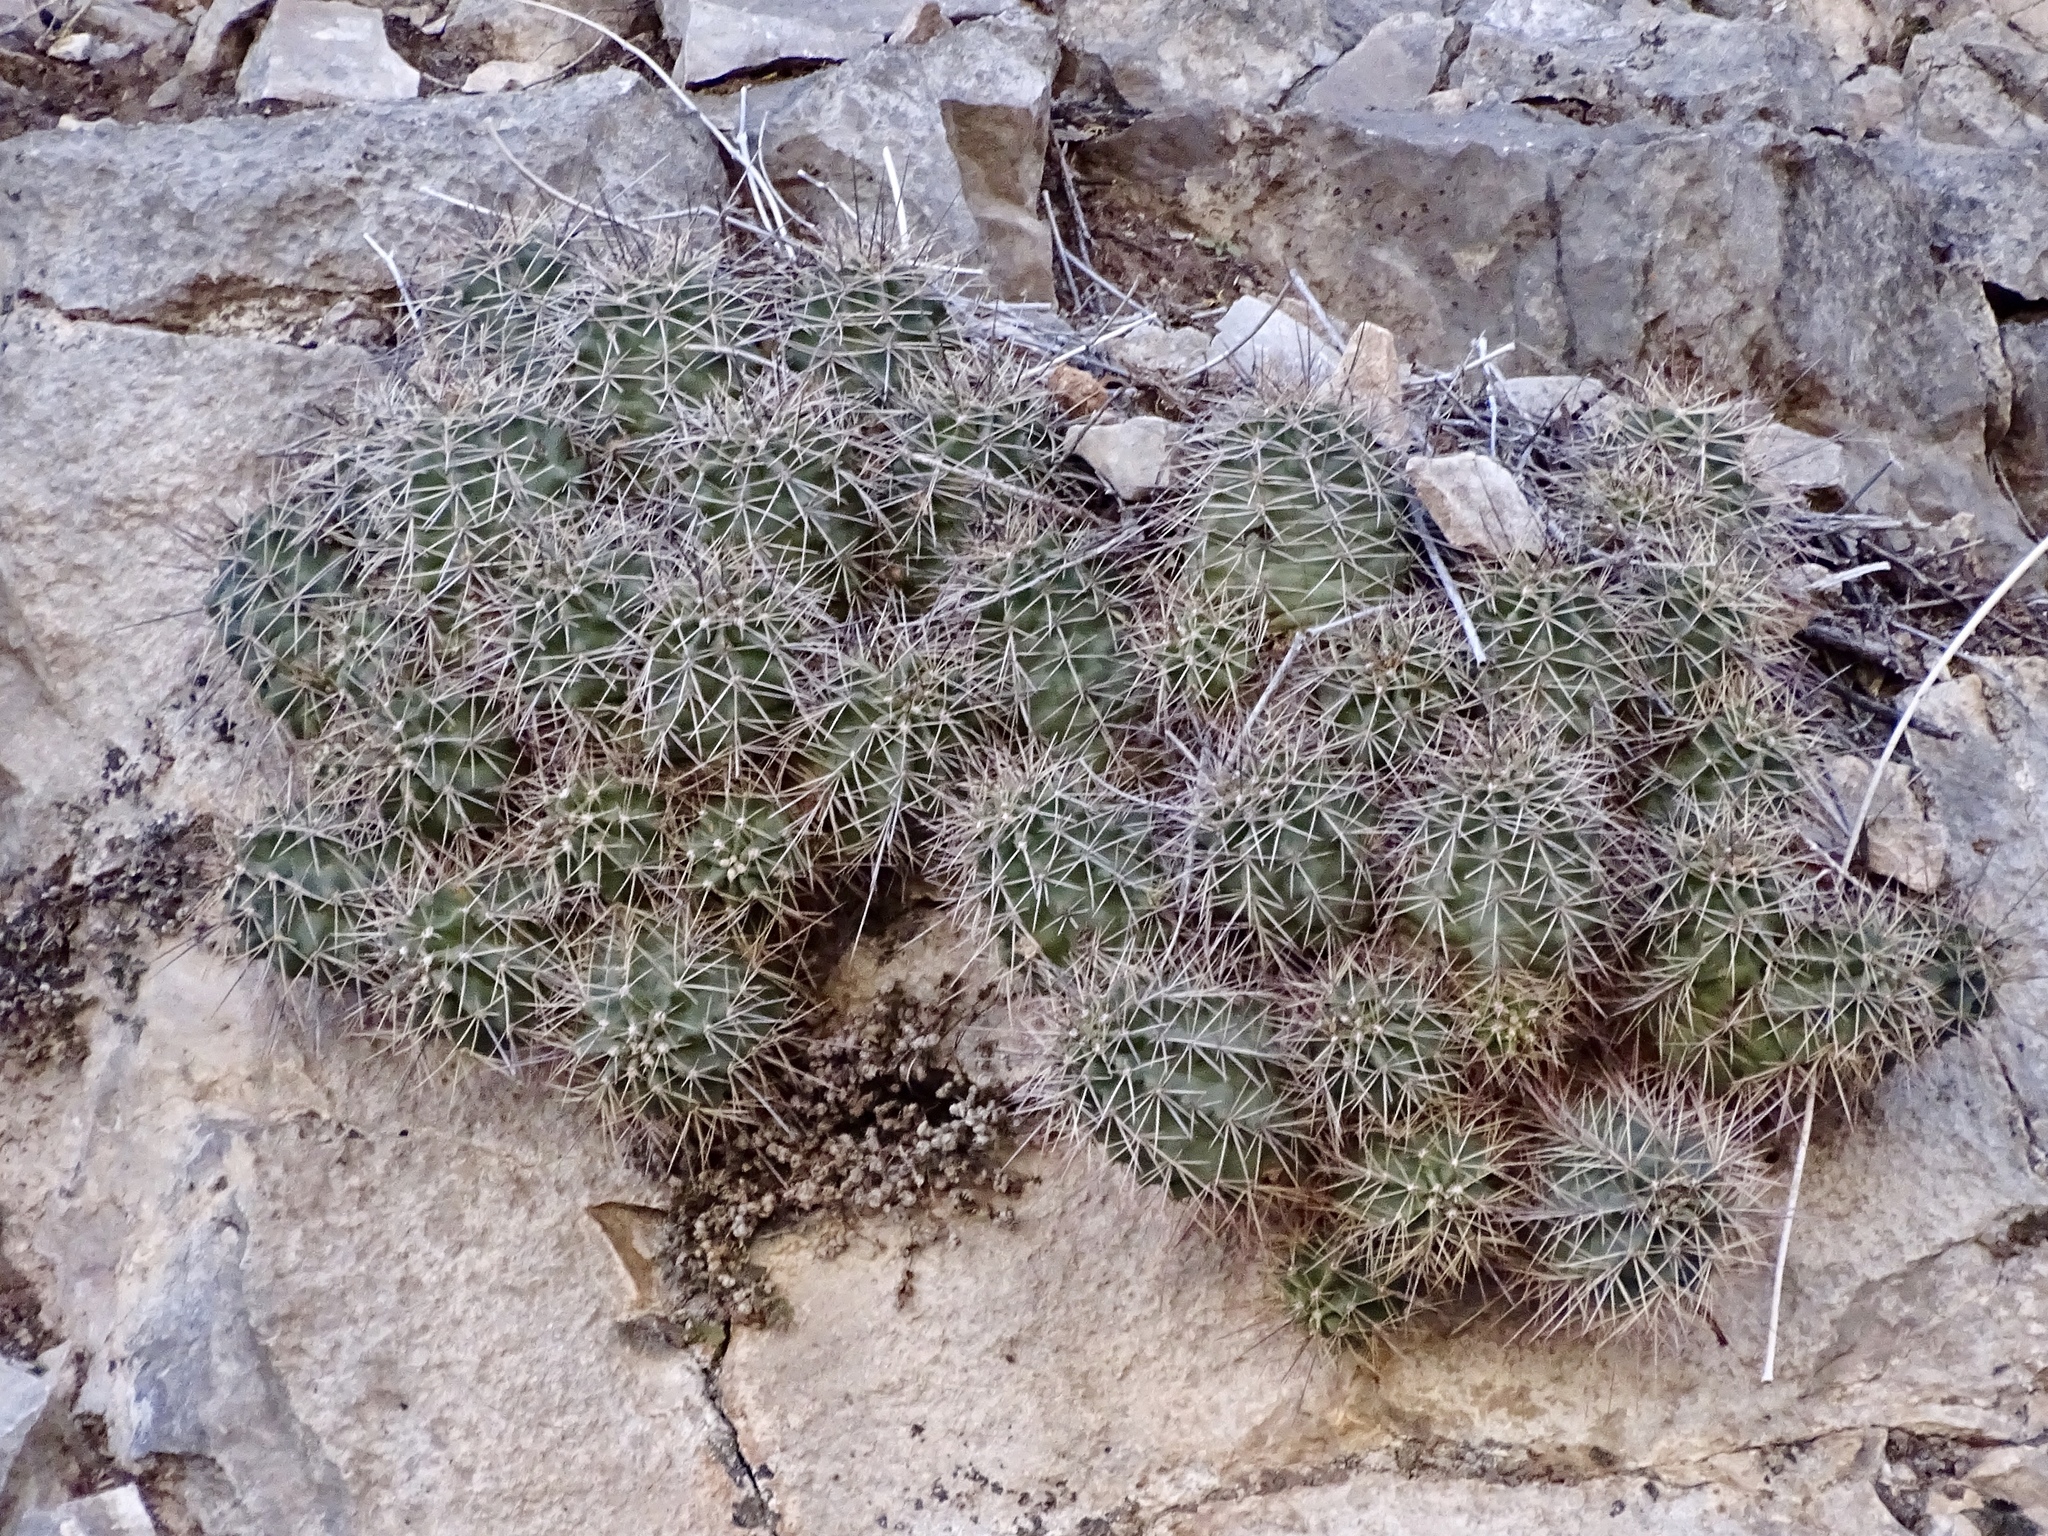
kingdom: Plantae
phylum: Tracheophyta
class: Magnoliopsida
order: Caryophyllales
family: Cactaceae
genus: Echinocereus
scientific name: Echinocereus coccineus
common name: Scarlet hedgehog cactus
